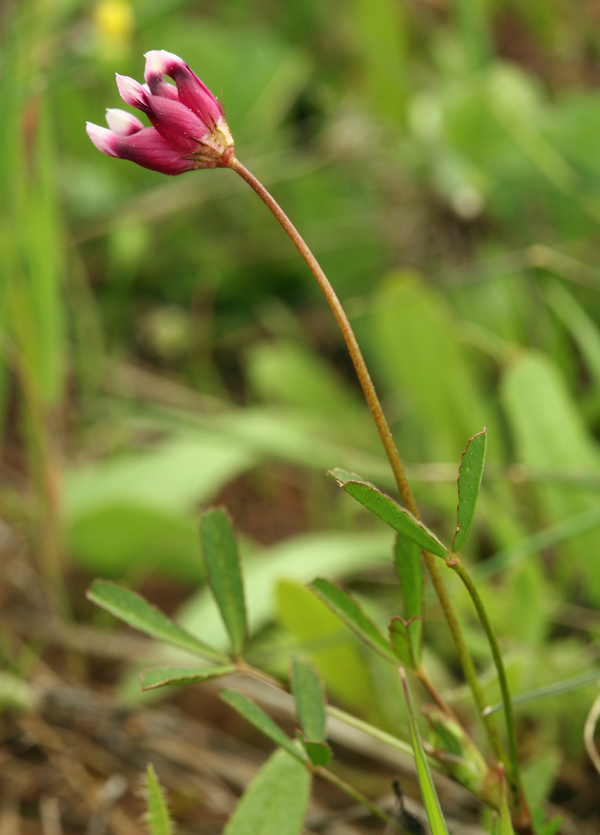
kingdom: Plantae
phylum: Tracheophyta
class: Magnoliopsida
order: Fabales
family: Fabaceae
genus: Trifolium
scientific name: Trifolium depauperatum
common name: Poverty clover
